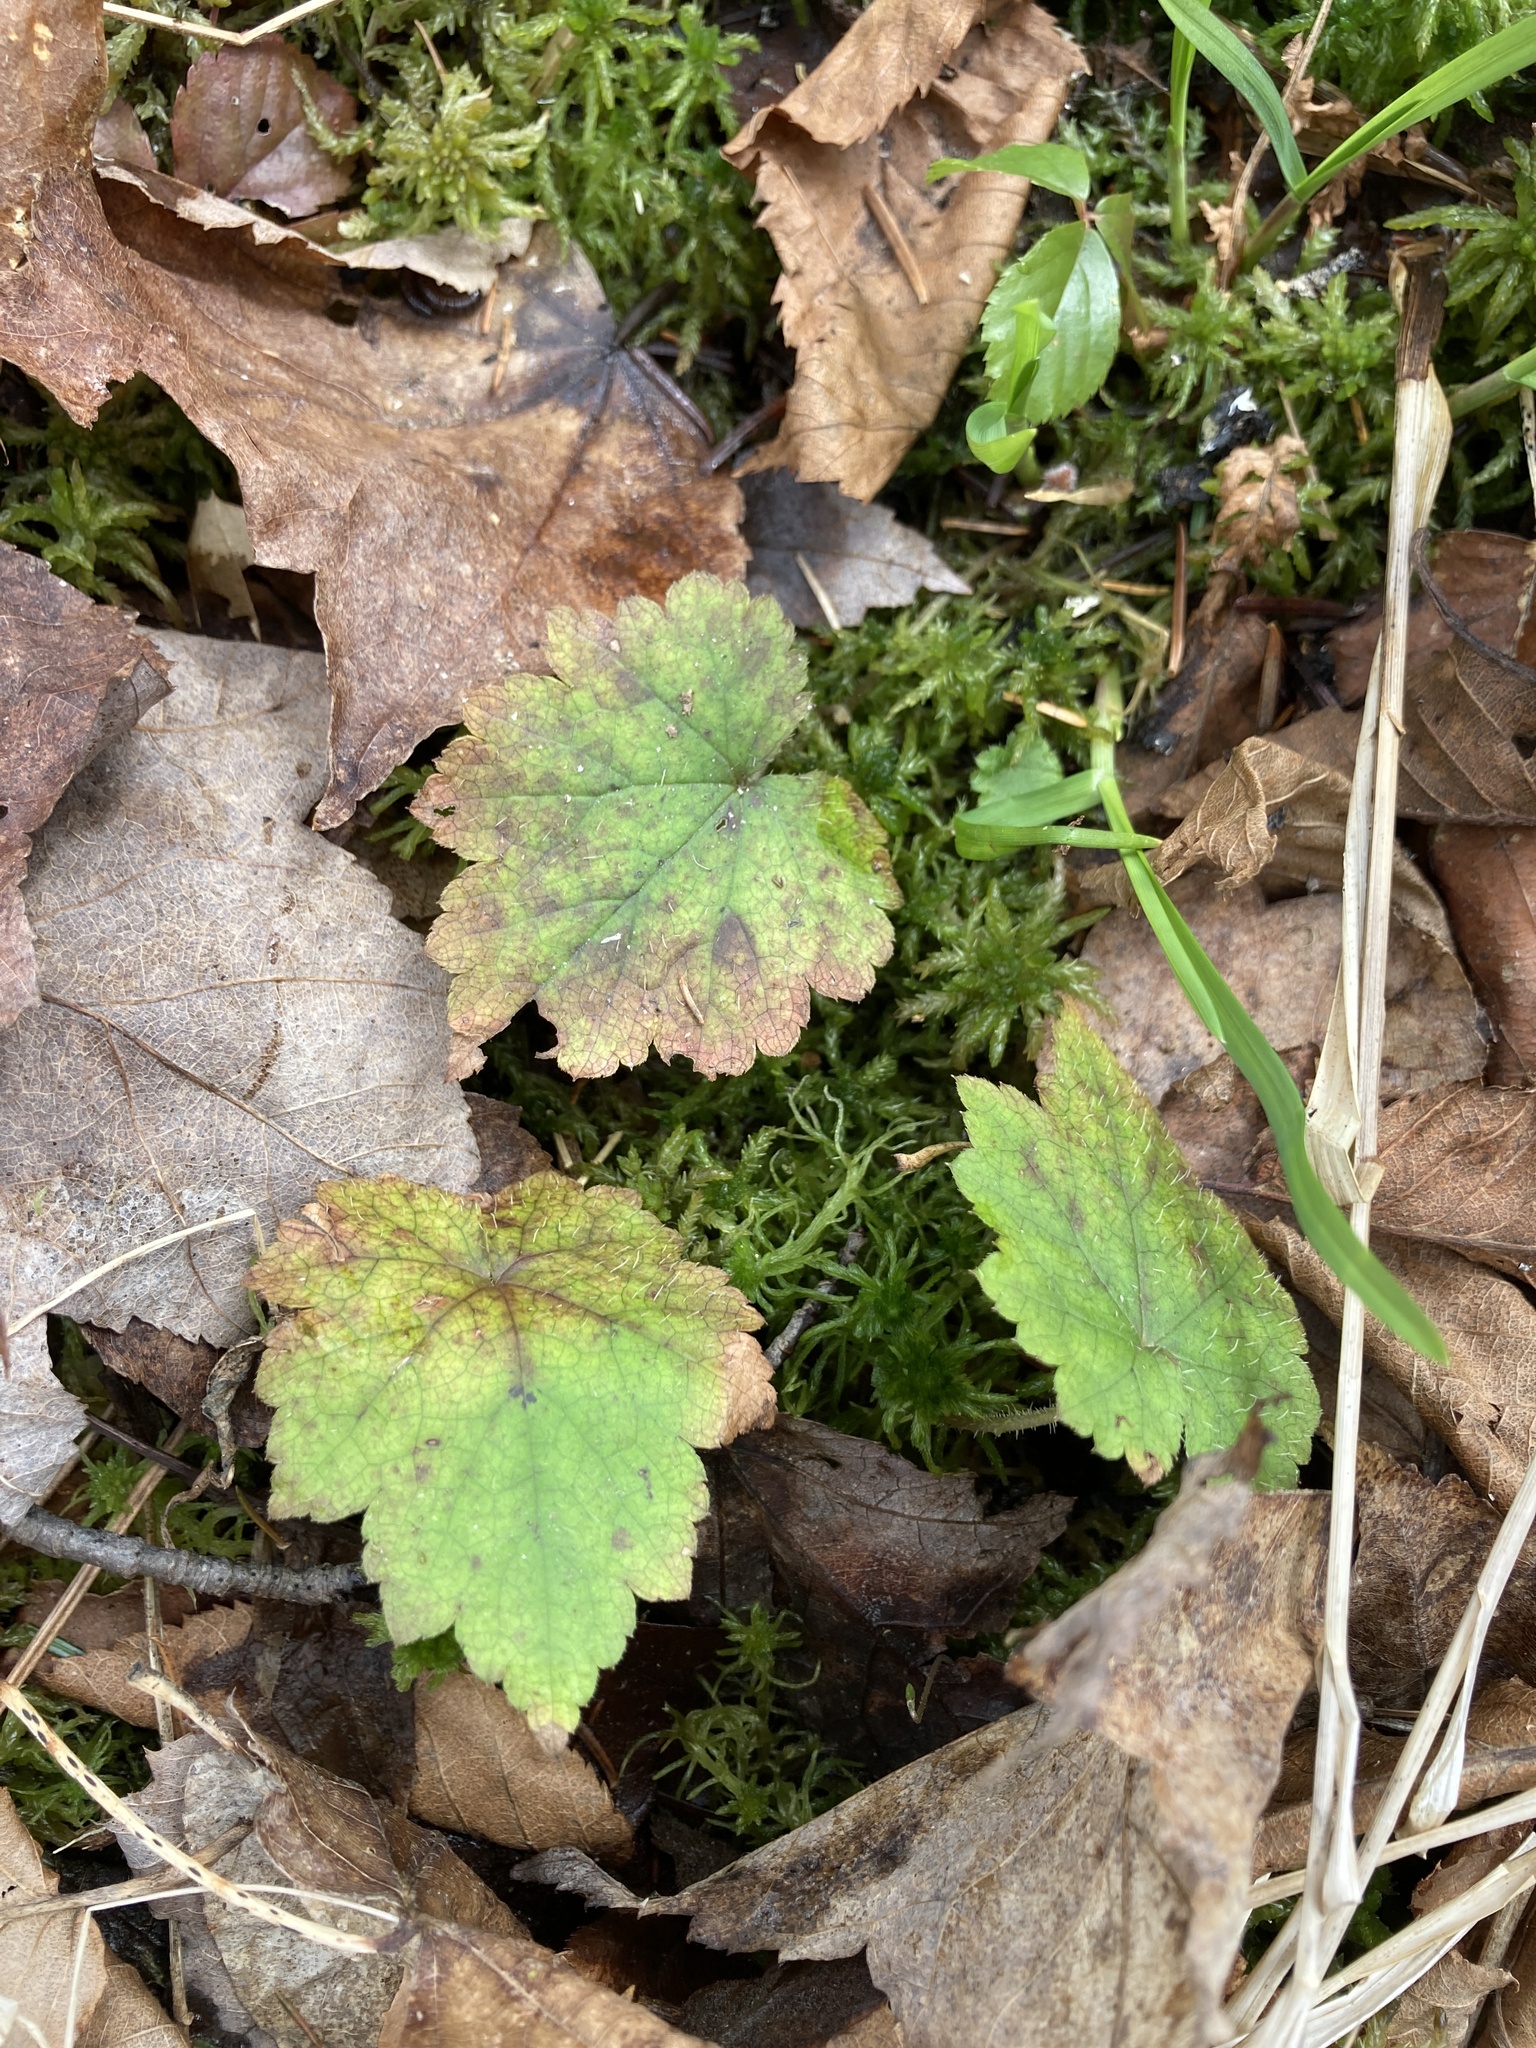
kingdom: Plantae
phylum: Tracheophyta
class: Magnoliopsida
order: Saxifragales
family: Saxifragaceae
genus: Tiarella
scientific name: Tiarella stolonifera
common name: Stoloniferous foamflower
